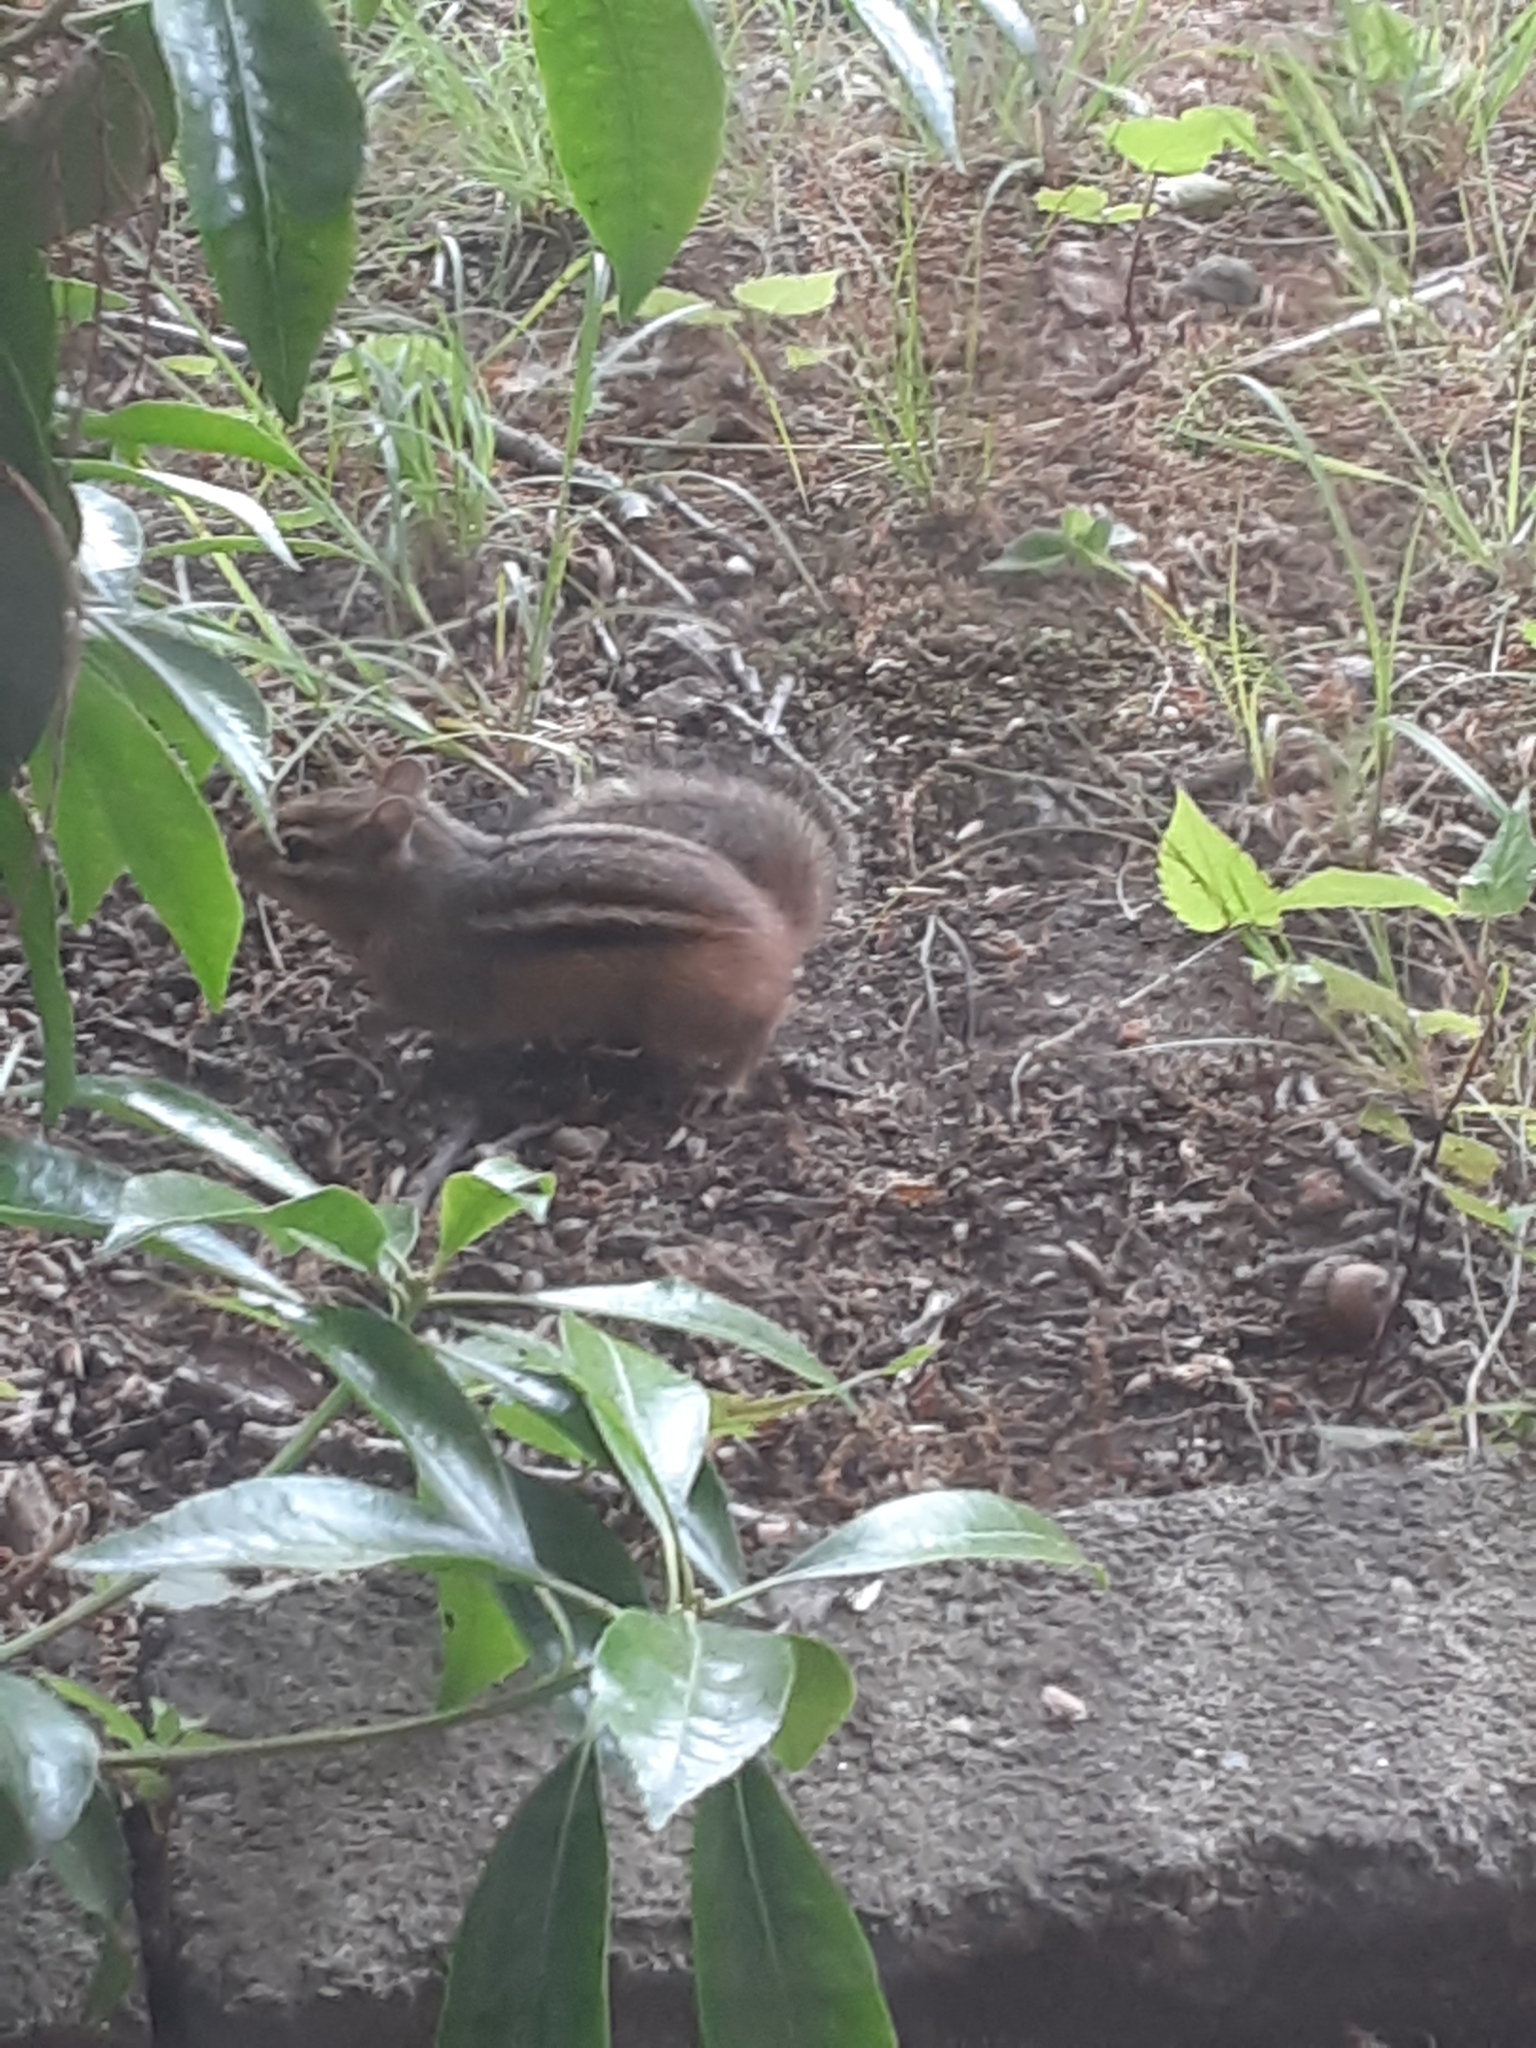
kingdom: Animalia
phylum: Chordata
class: Mammalia
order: Rodentia
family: Sciuridae
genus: Tamias
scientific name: Tamias striatus
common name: Eastern chipmunk
